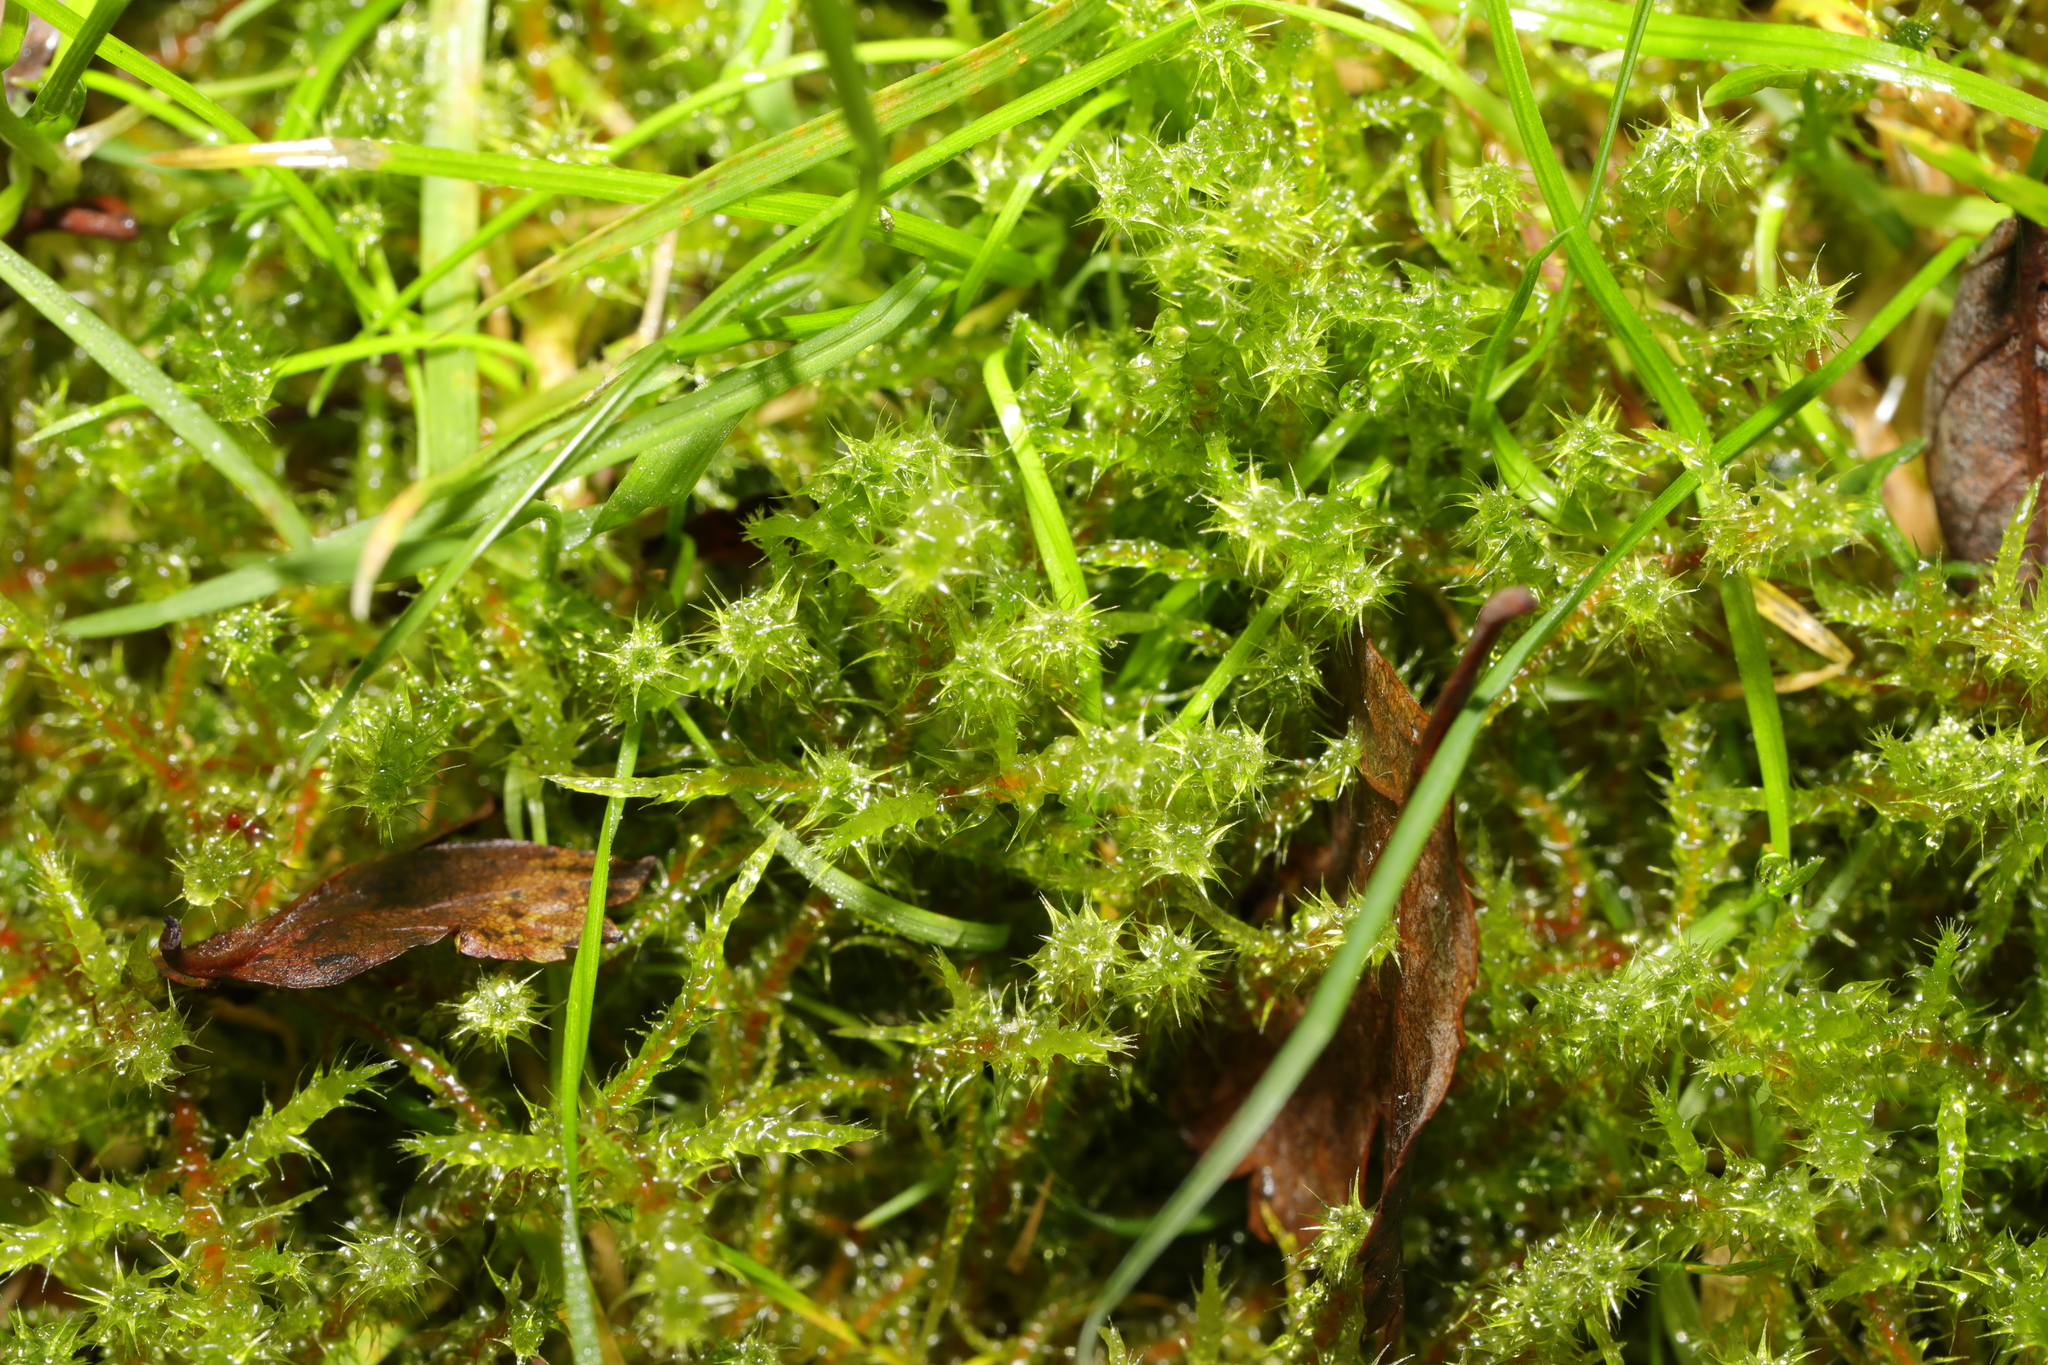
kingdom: Plantae
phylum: Bryophyta
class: Bryopsida
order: Hypnales
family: Hylocomiaceae
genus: Rhytidiadelphus
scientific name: Rhytidiadelphus squarrosus
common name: Springy turf-moss
